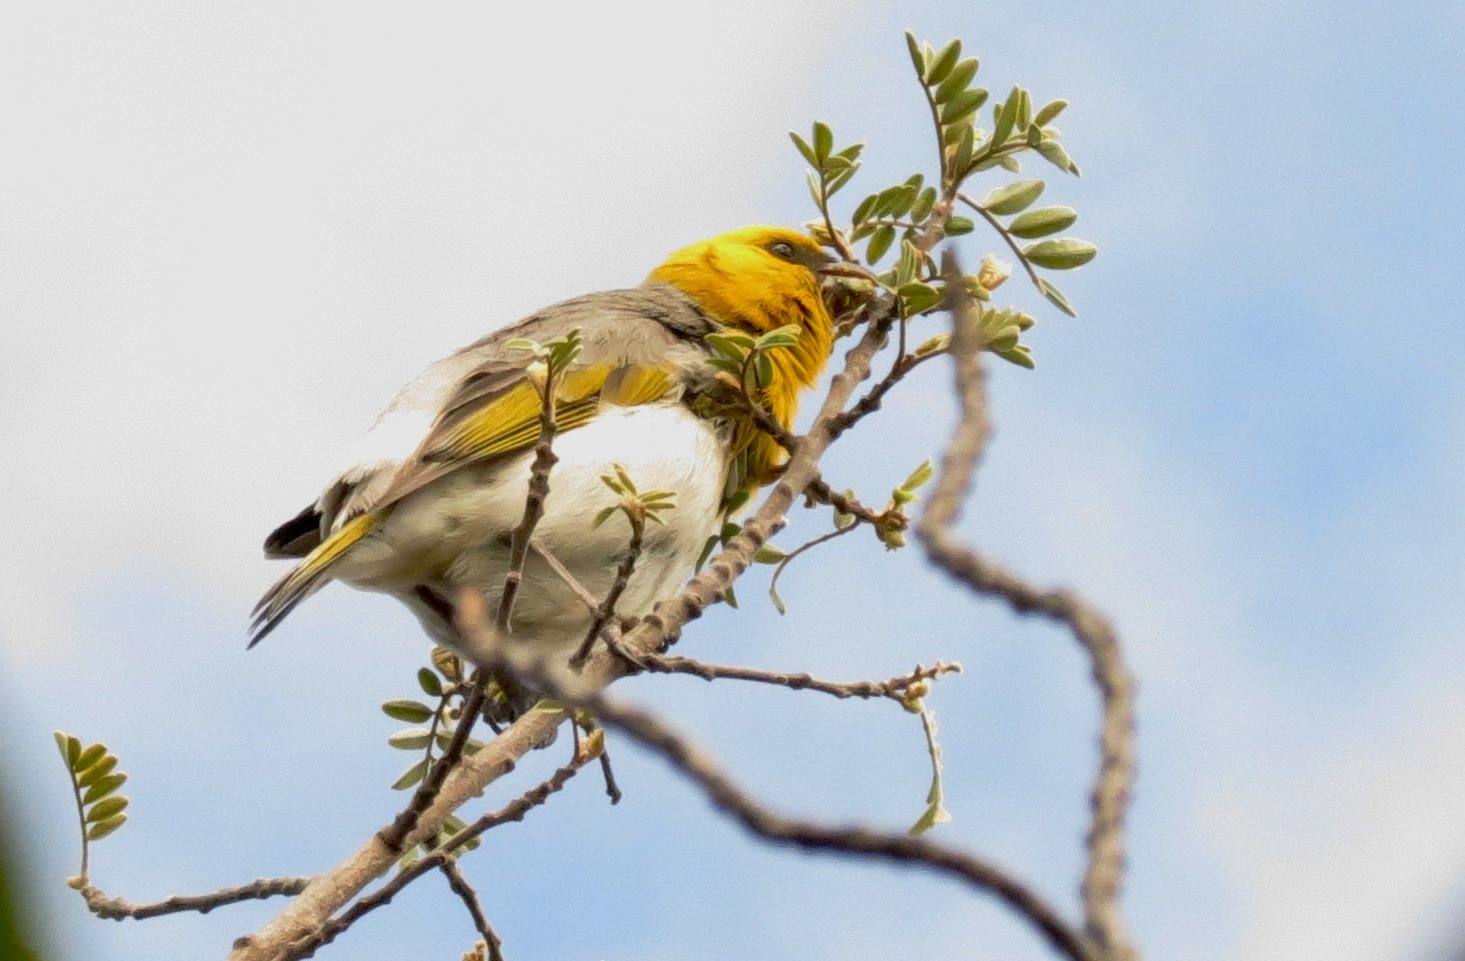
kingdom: Animalia
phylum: Chordata
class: Aves
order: Passeriformes
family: Fringillidae
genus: Loxioides
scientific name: Loxioides bailleui
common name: Palila
